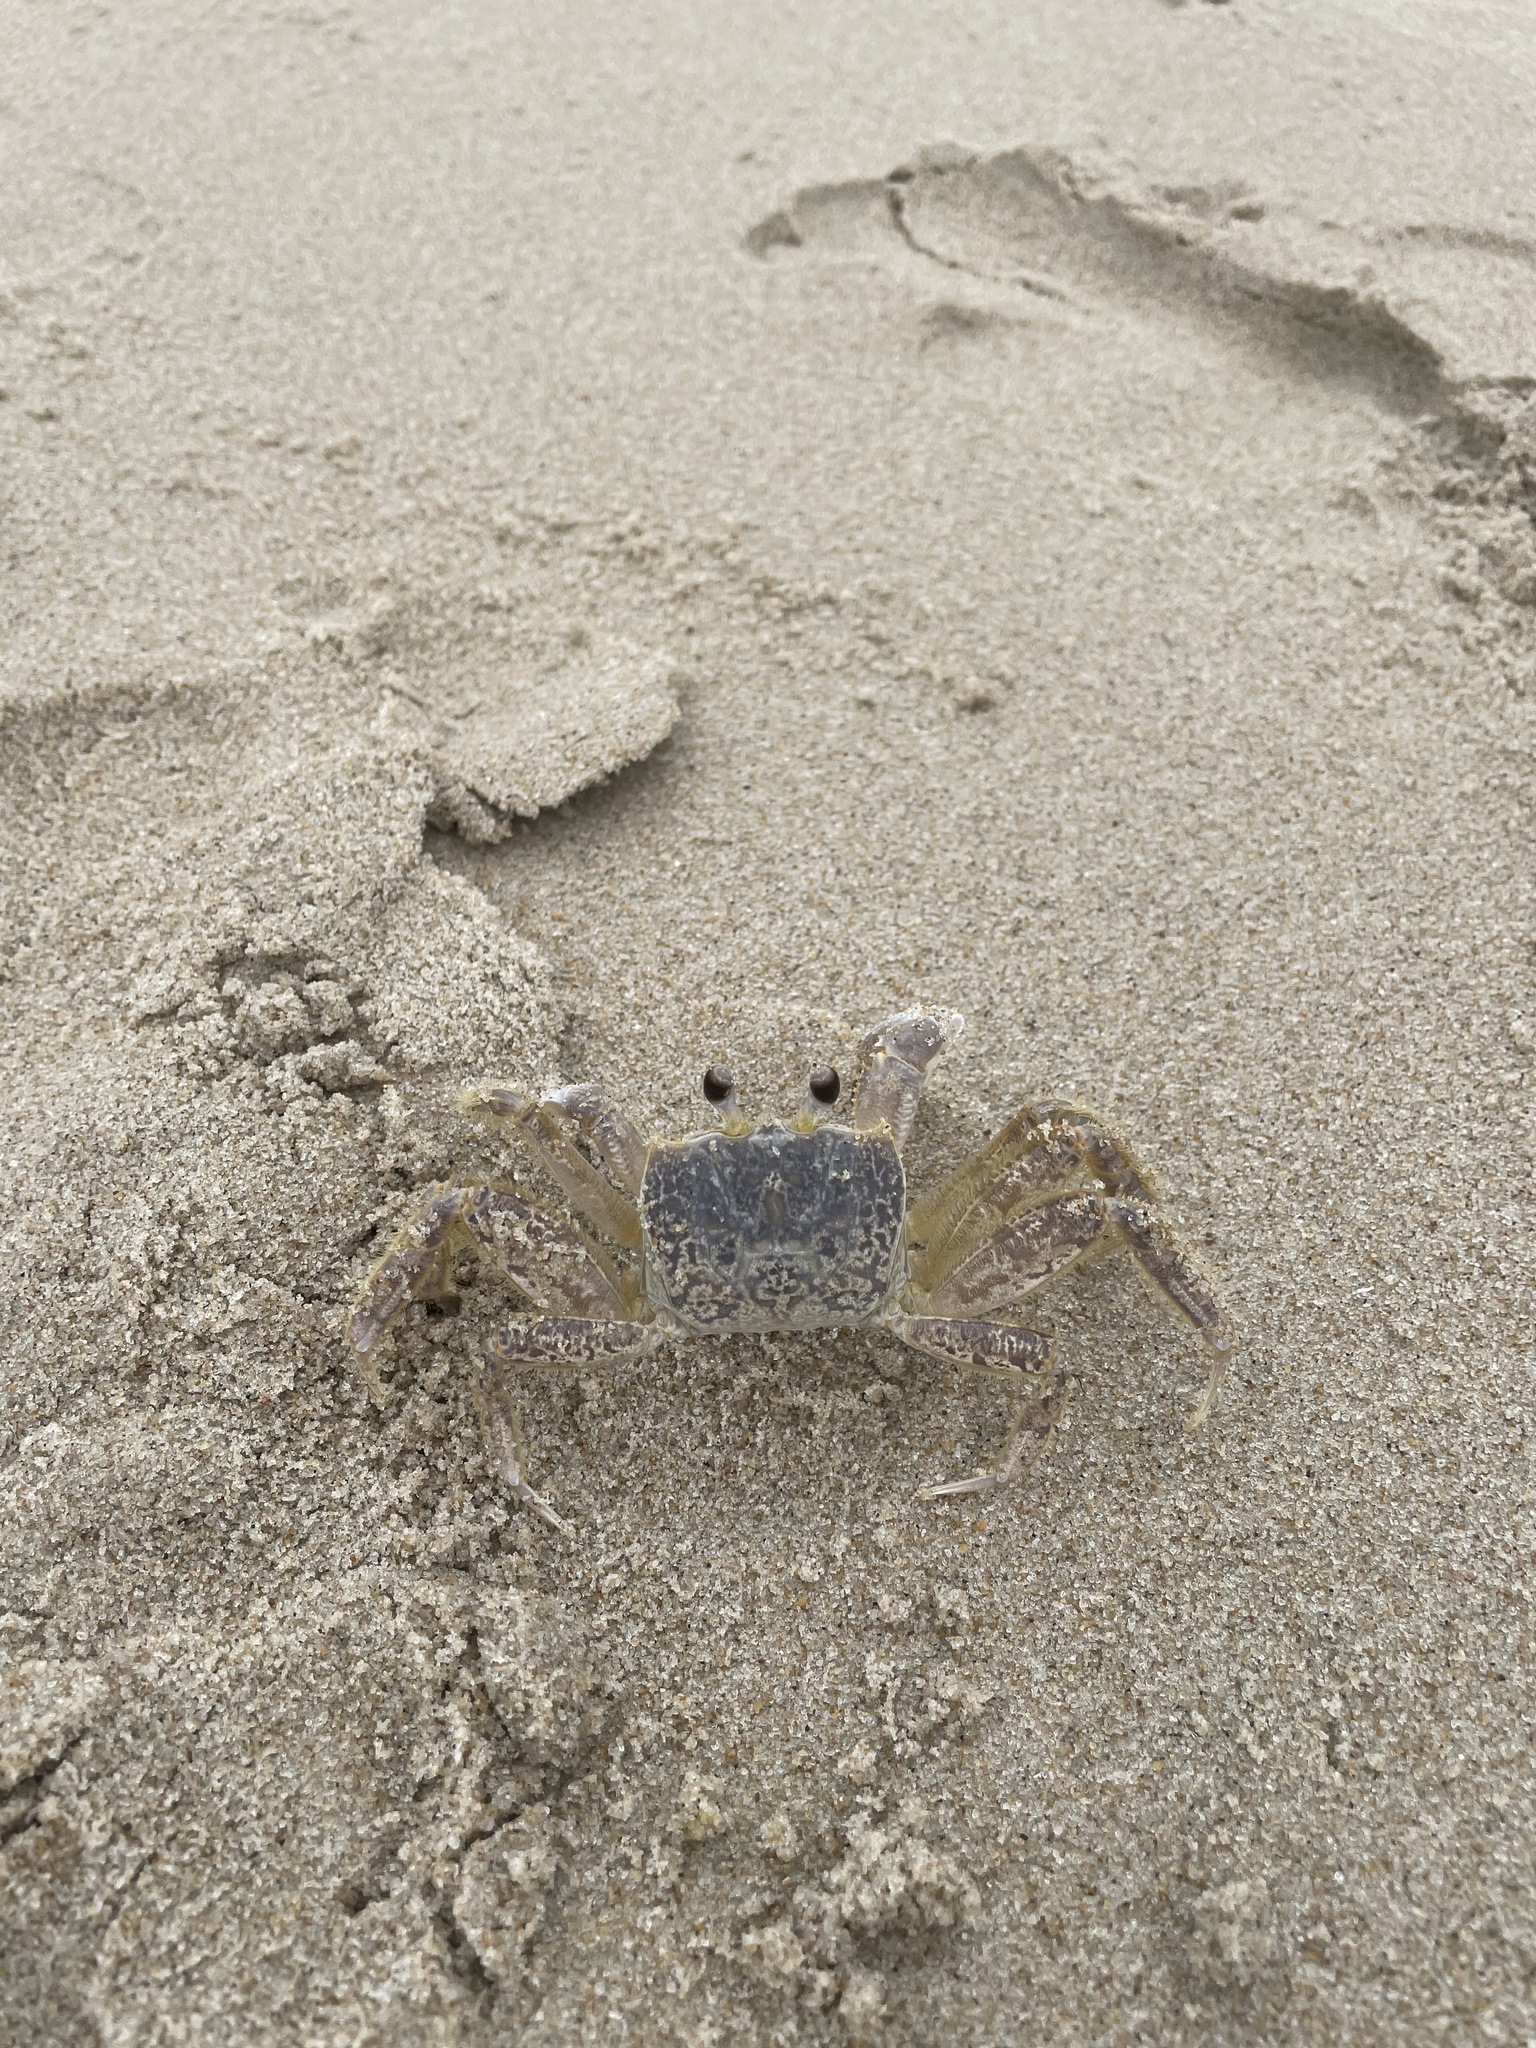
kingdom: Animalia
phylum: Arthropoda
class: Malacostraca
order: Decapoda
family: Ocypodidae
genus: Ocypode
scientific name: Ocypode quadrata
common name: Ghost crab
